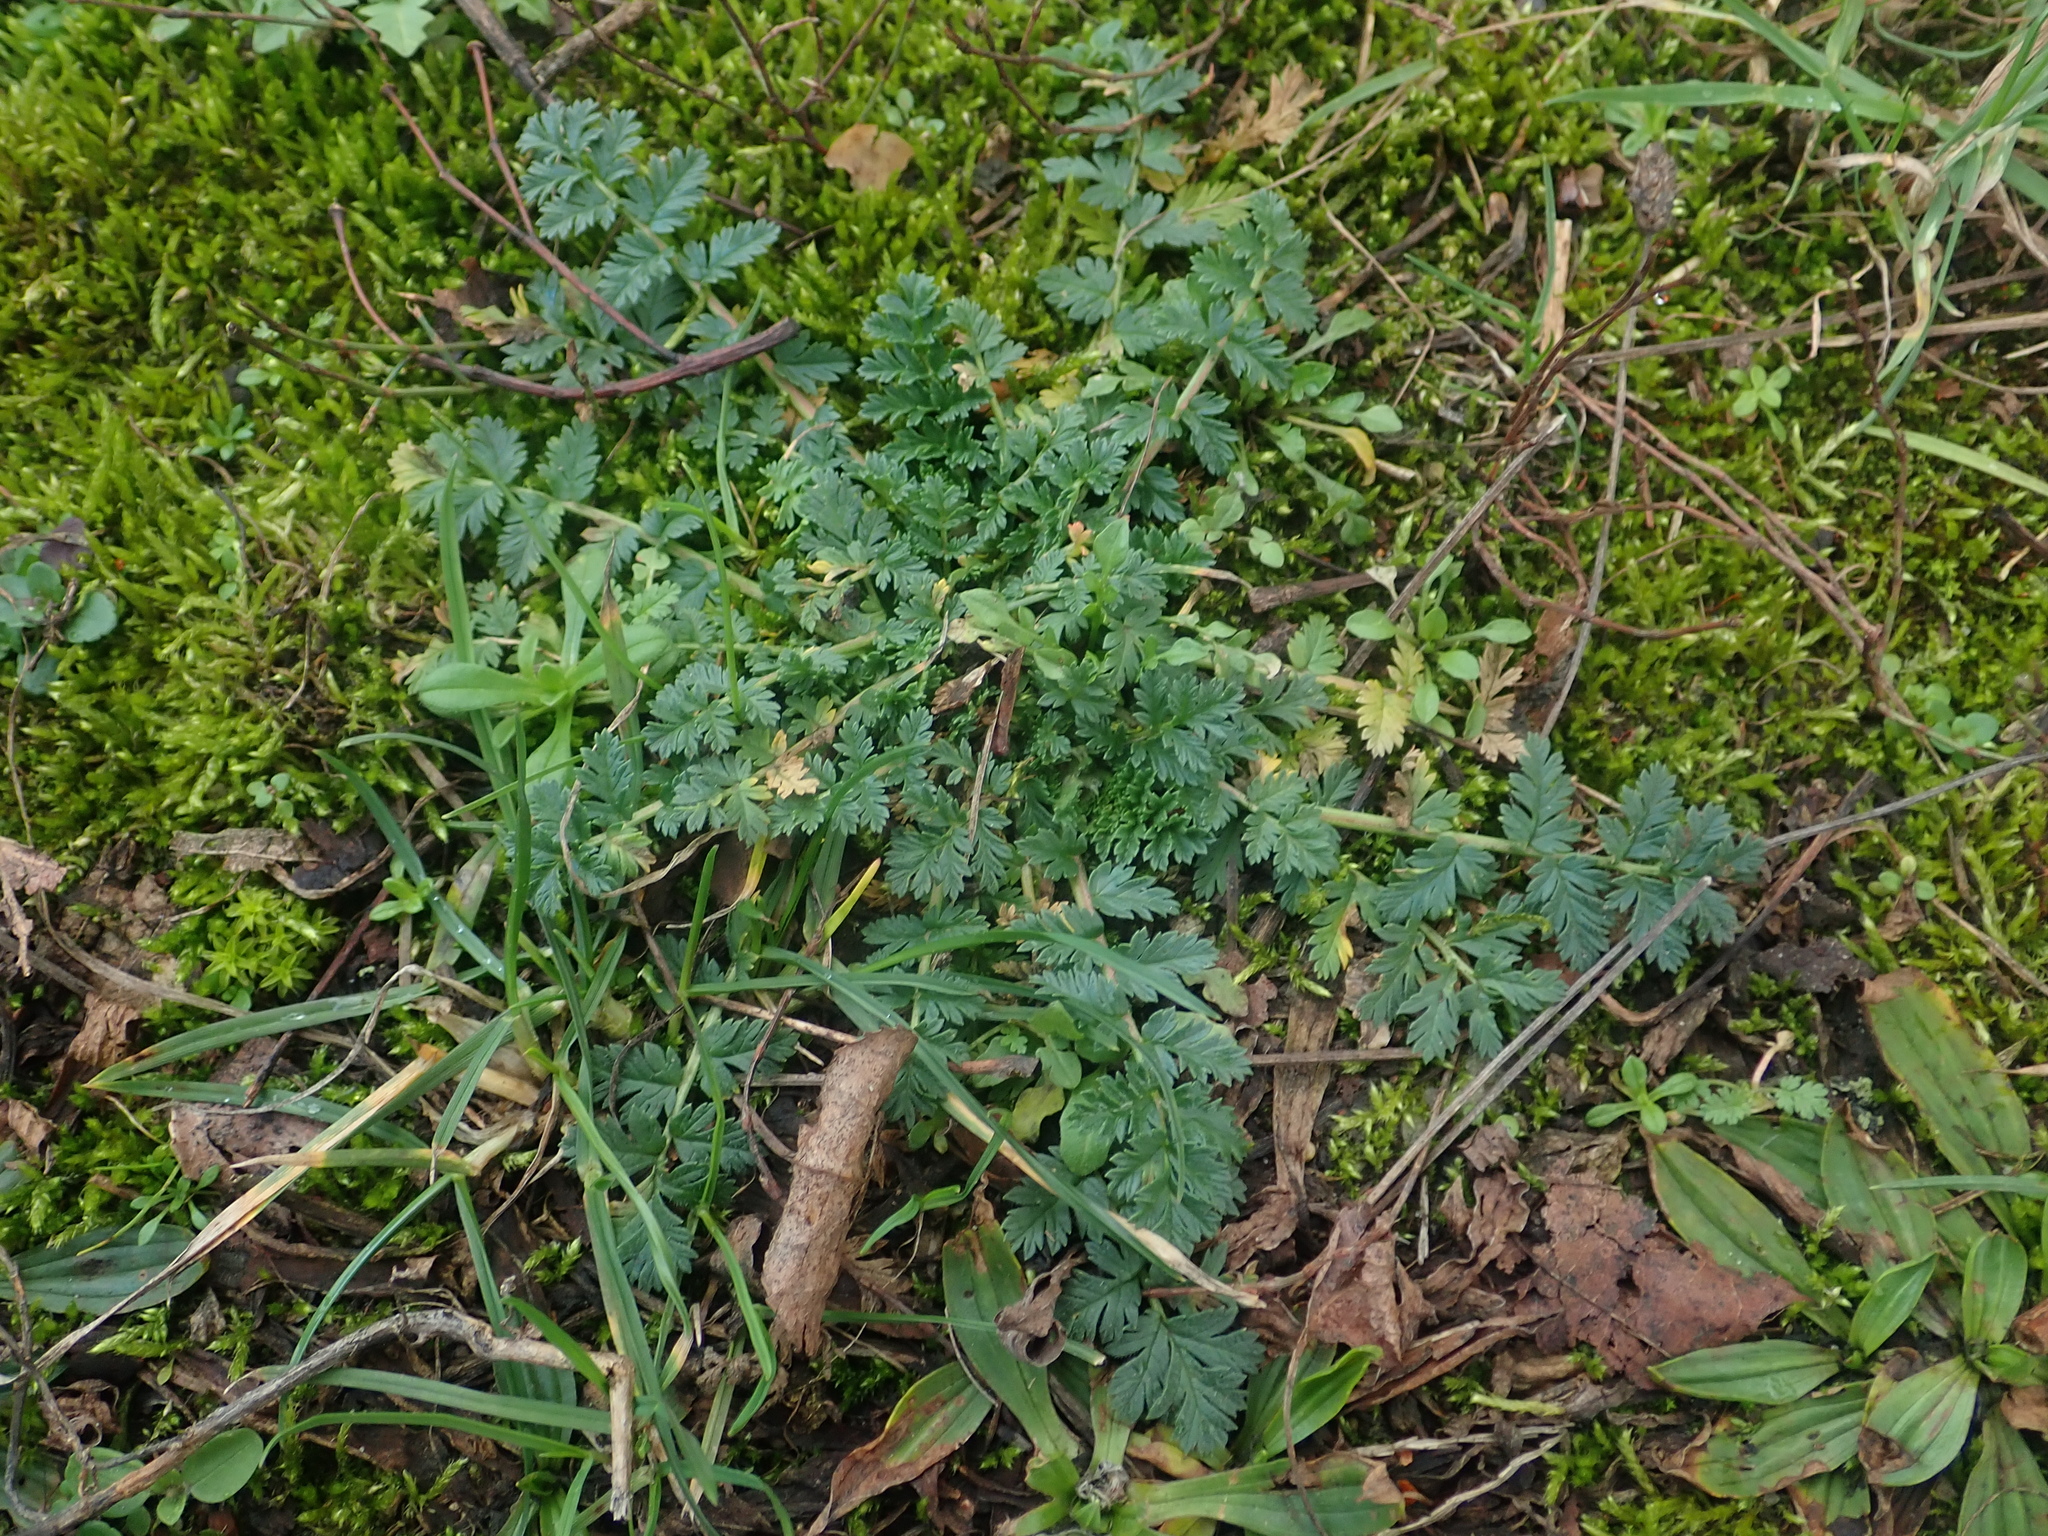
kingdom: Plantae
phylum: Tracheophyta
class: Magnoliopsida
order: Geraniales
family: Geraniaceae
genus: Erodium
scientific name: Erodium cicutarium
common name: Common stork's-bill
